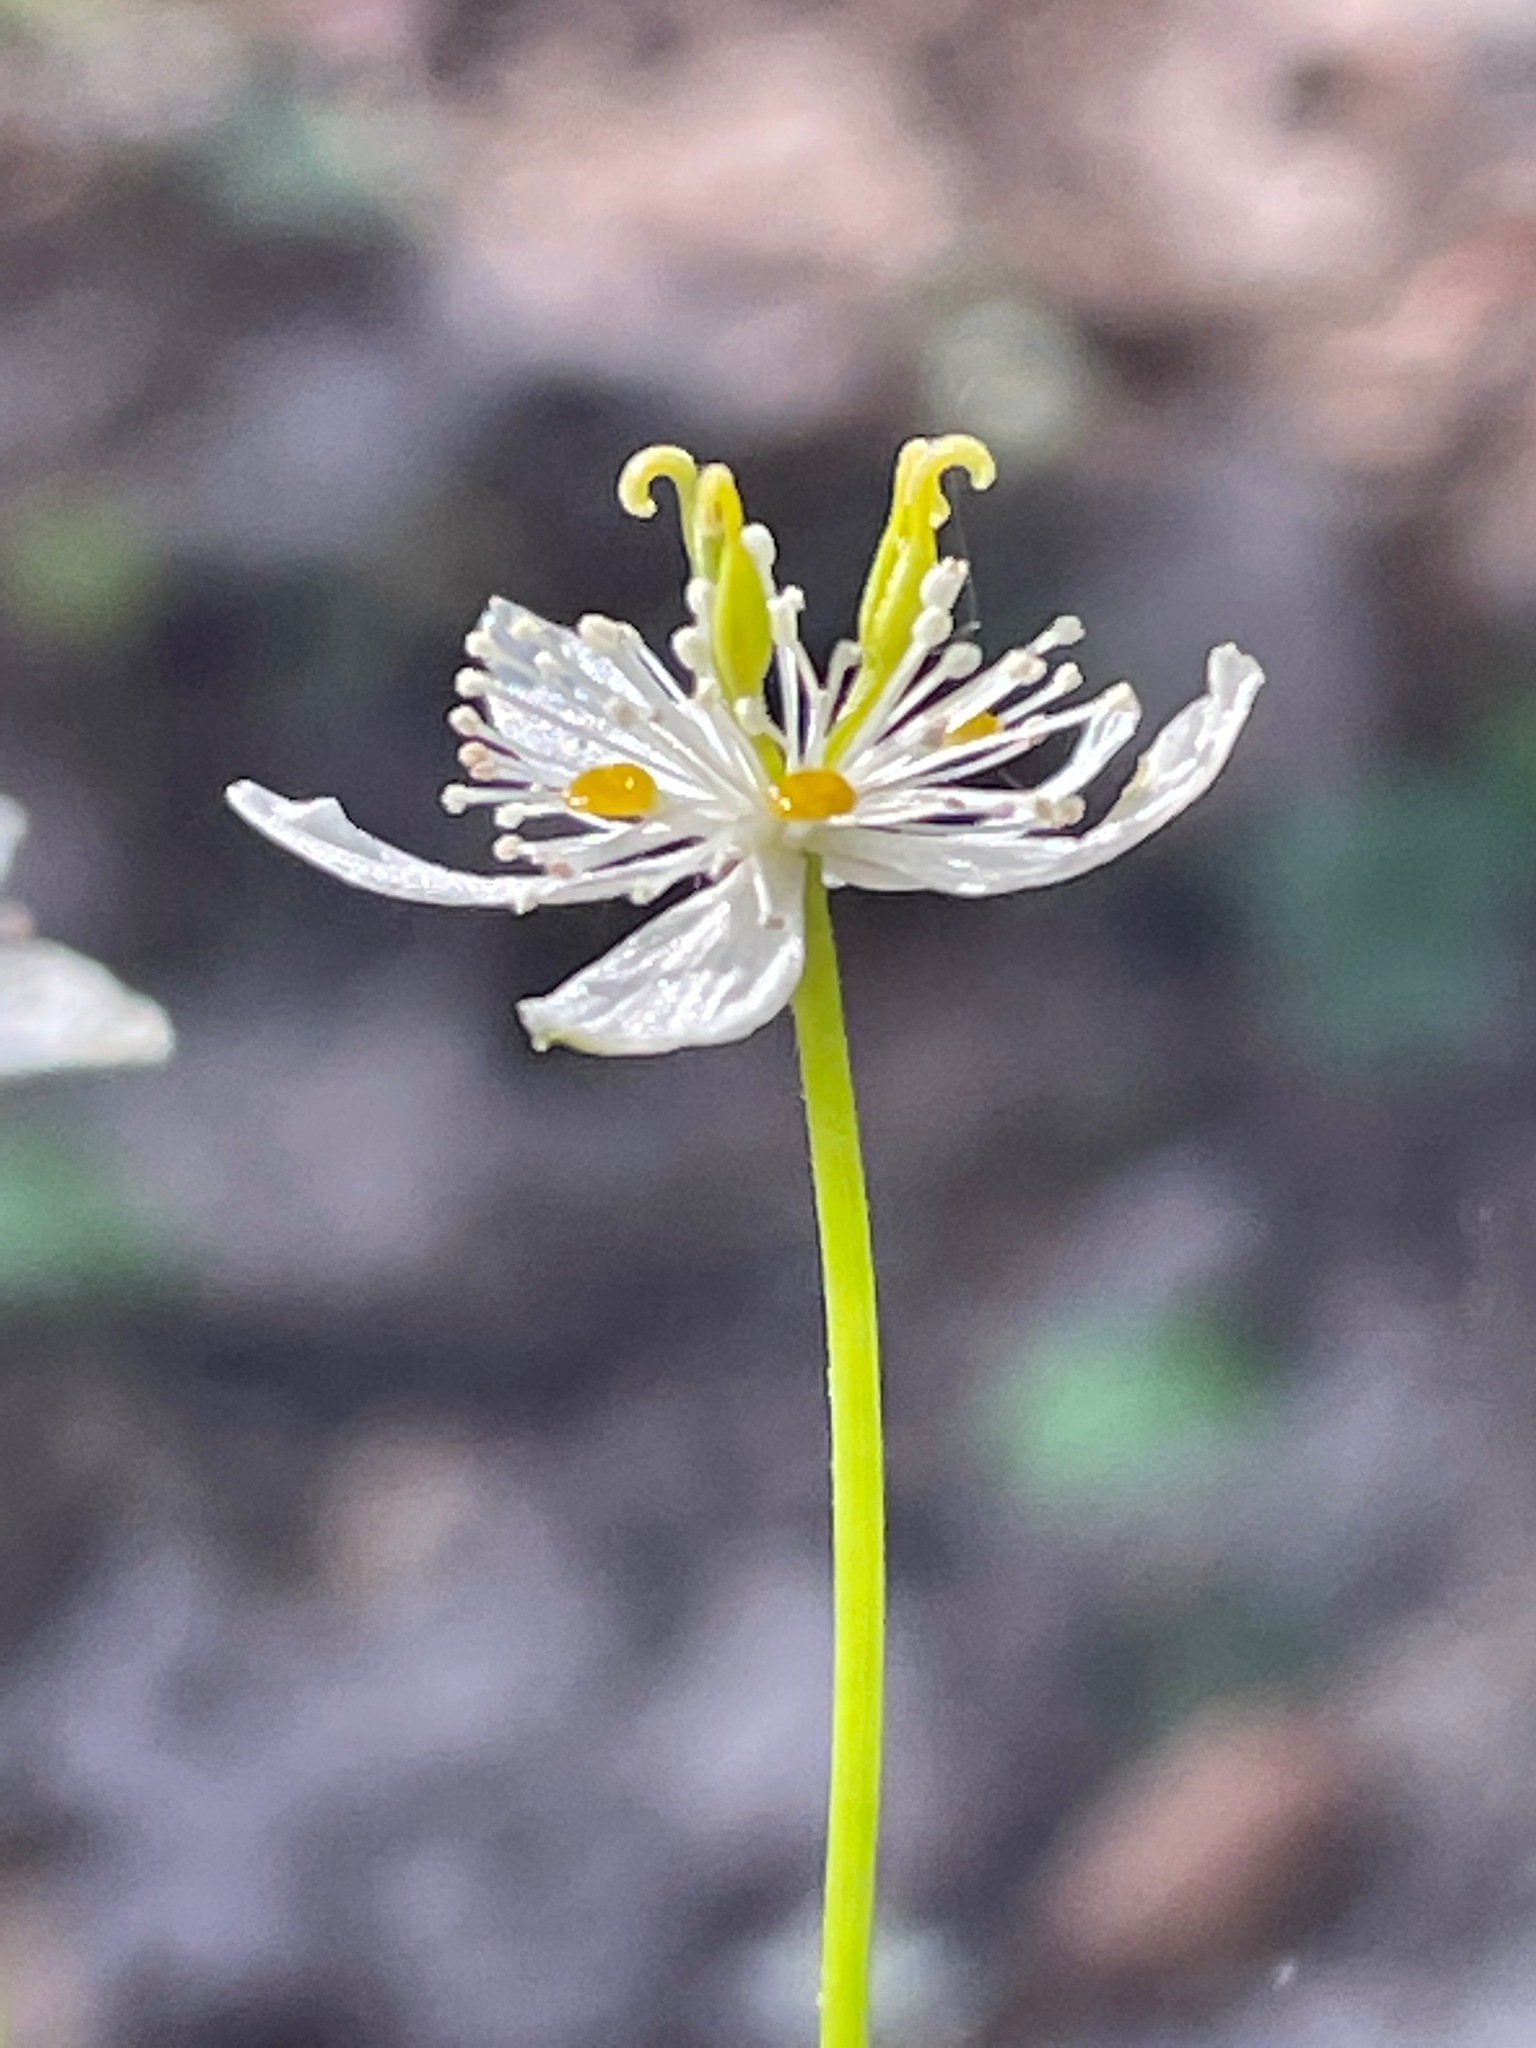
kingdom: Plantae
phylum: Tracheophyta
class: Magnoliopsida
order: Ranunculales
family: Ranunculaceae
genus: Coptis
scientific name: Coptis trifolia
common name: Canker-root
